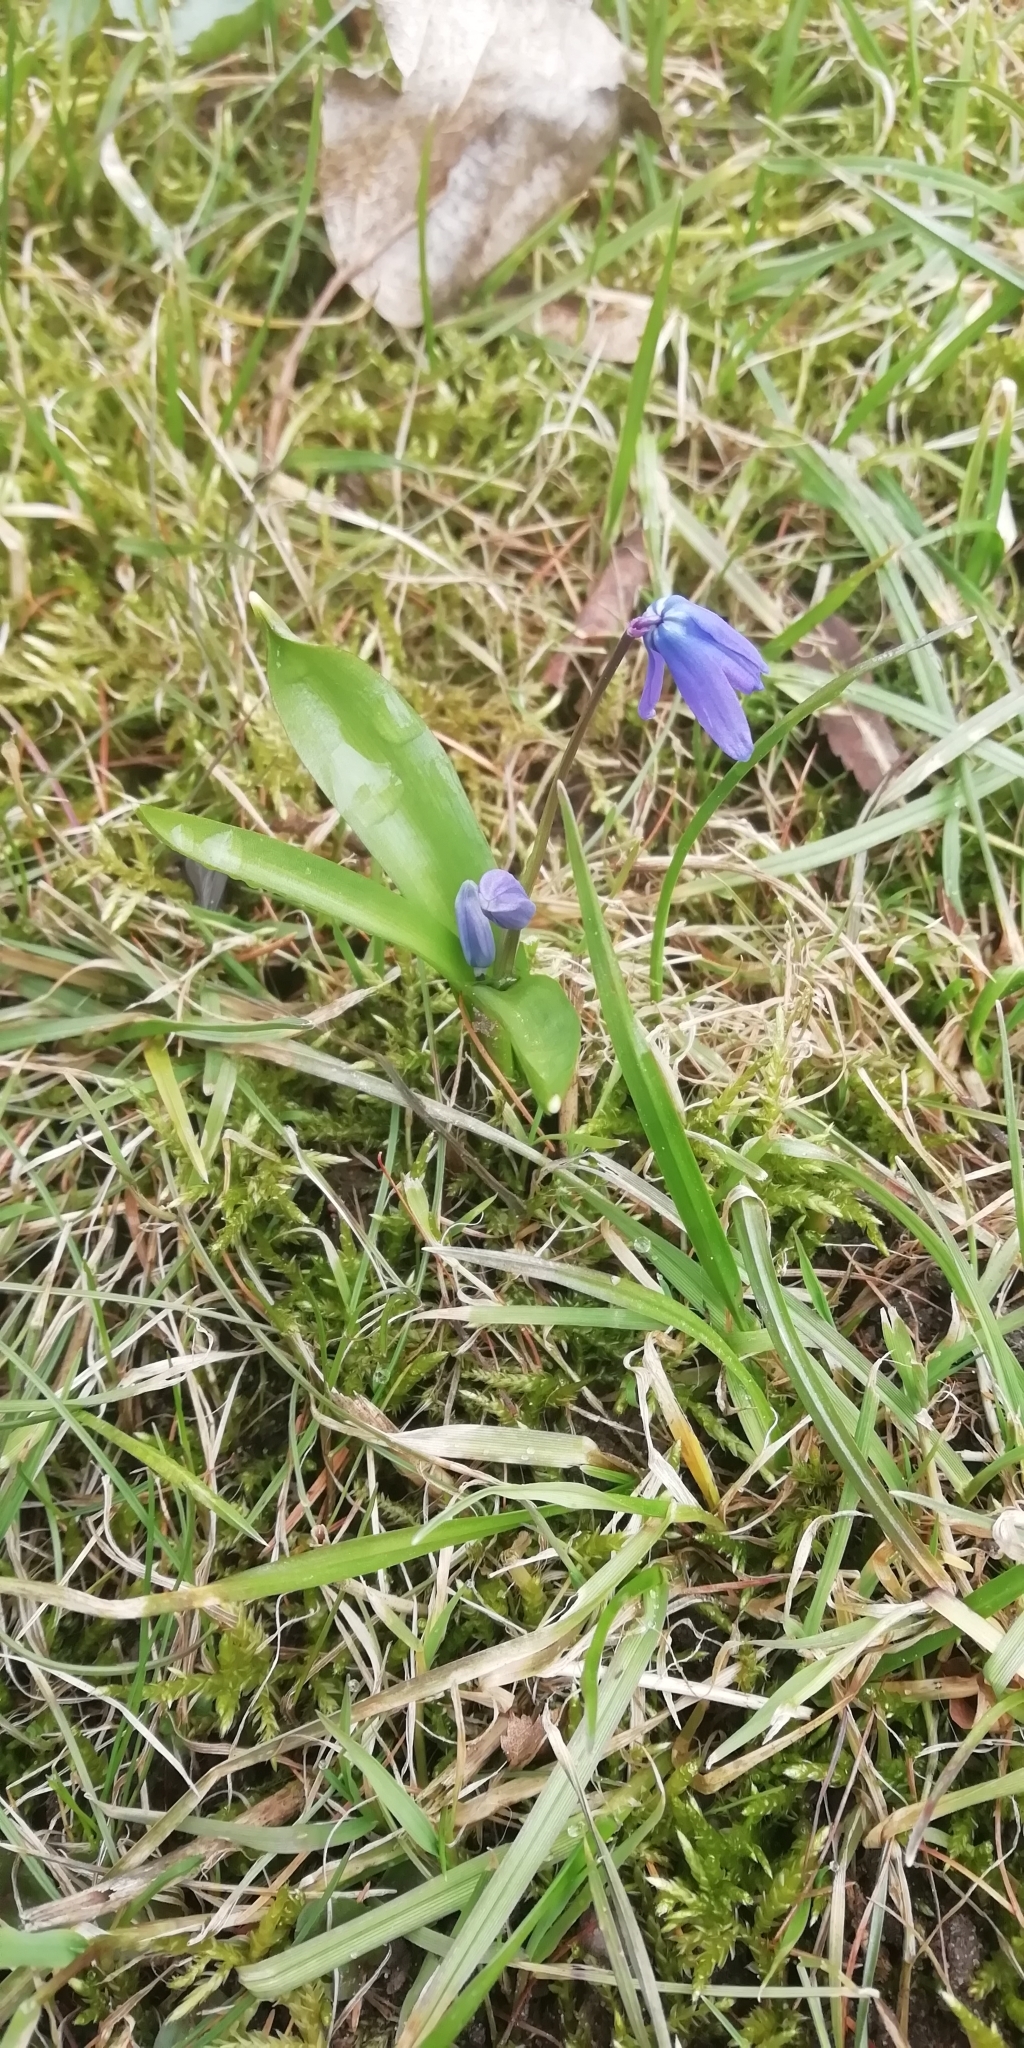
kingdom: Plantae
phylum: Tracheophyta
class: Liliopsida
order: Asparagales
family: Asparagaceae
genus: Scilla
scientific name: Scilla siberica
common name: Siberian squill
